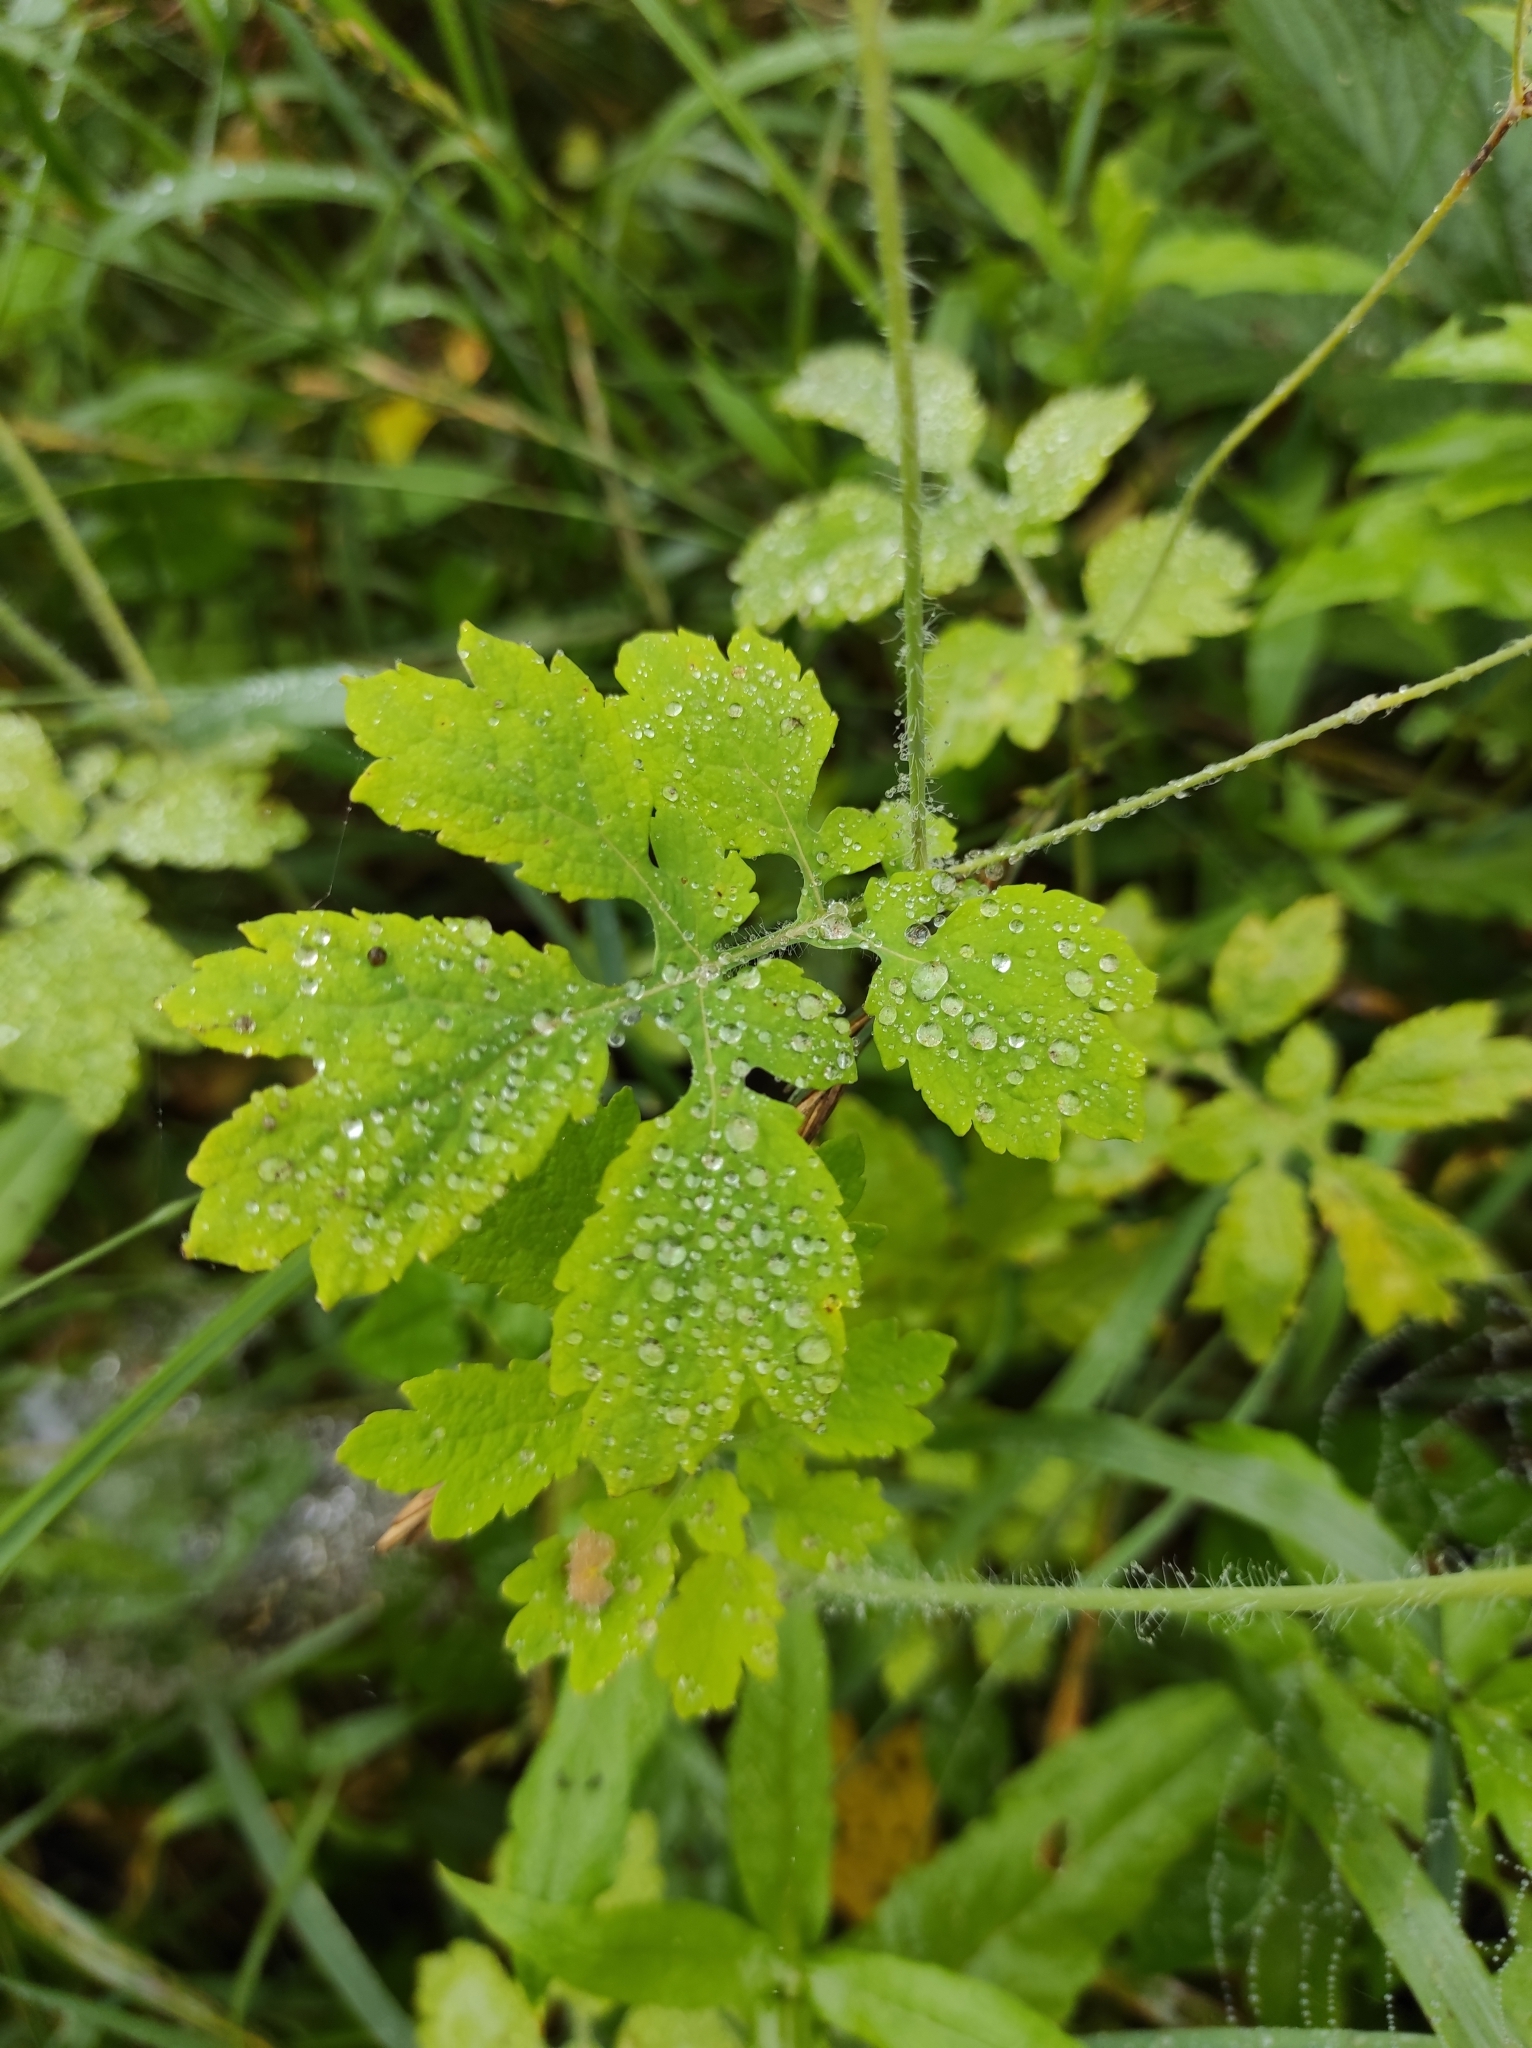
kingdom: Plantae
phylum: Tracheophyta
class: Magnoliopsida
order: Ranunculales
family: Papaveraceae
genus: Chelidonium
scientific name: Chelidonium majus
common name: Greater celandine
